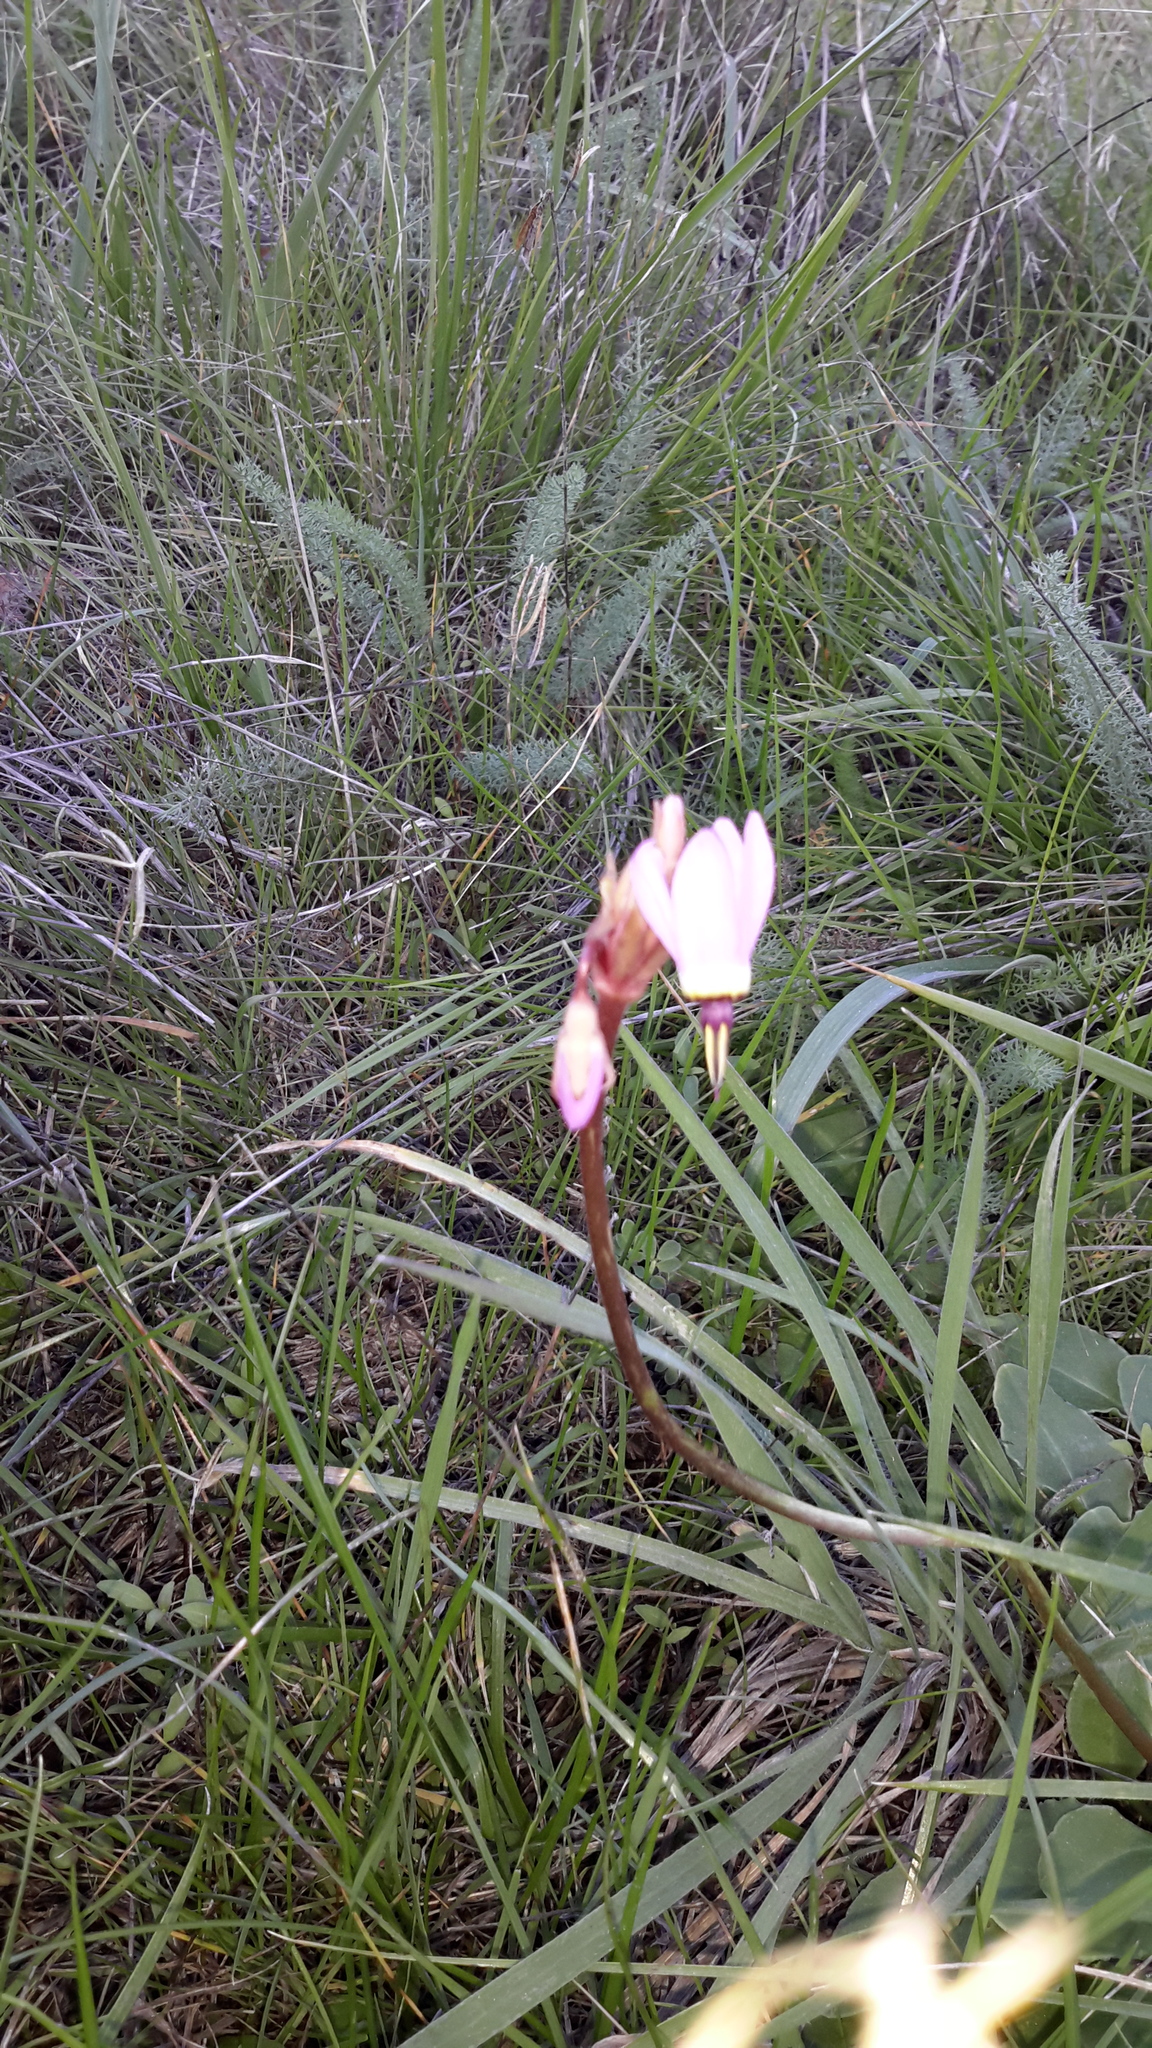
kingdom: Plantae
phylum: Tracheophyta
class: Magnoliopsida
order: Ericales
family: Primulaceae
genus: Dodecatheon
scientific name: Dodecatheon hendersonii
